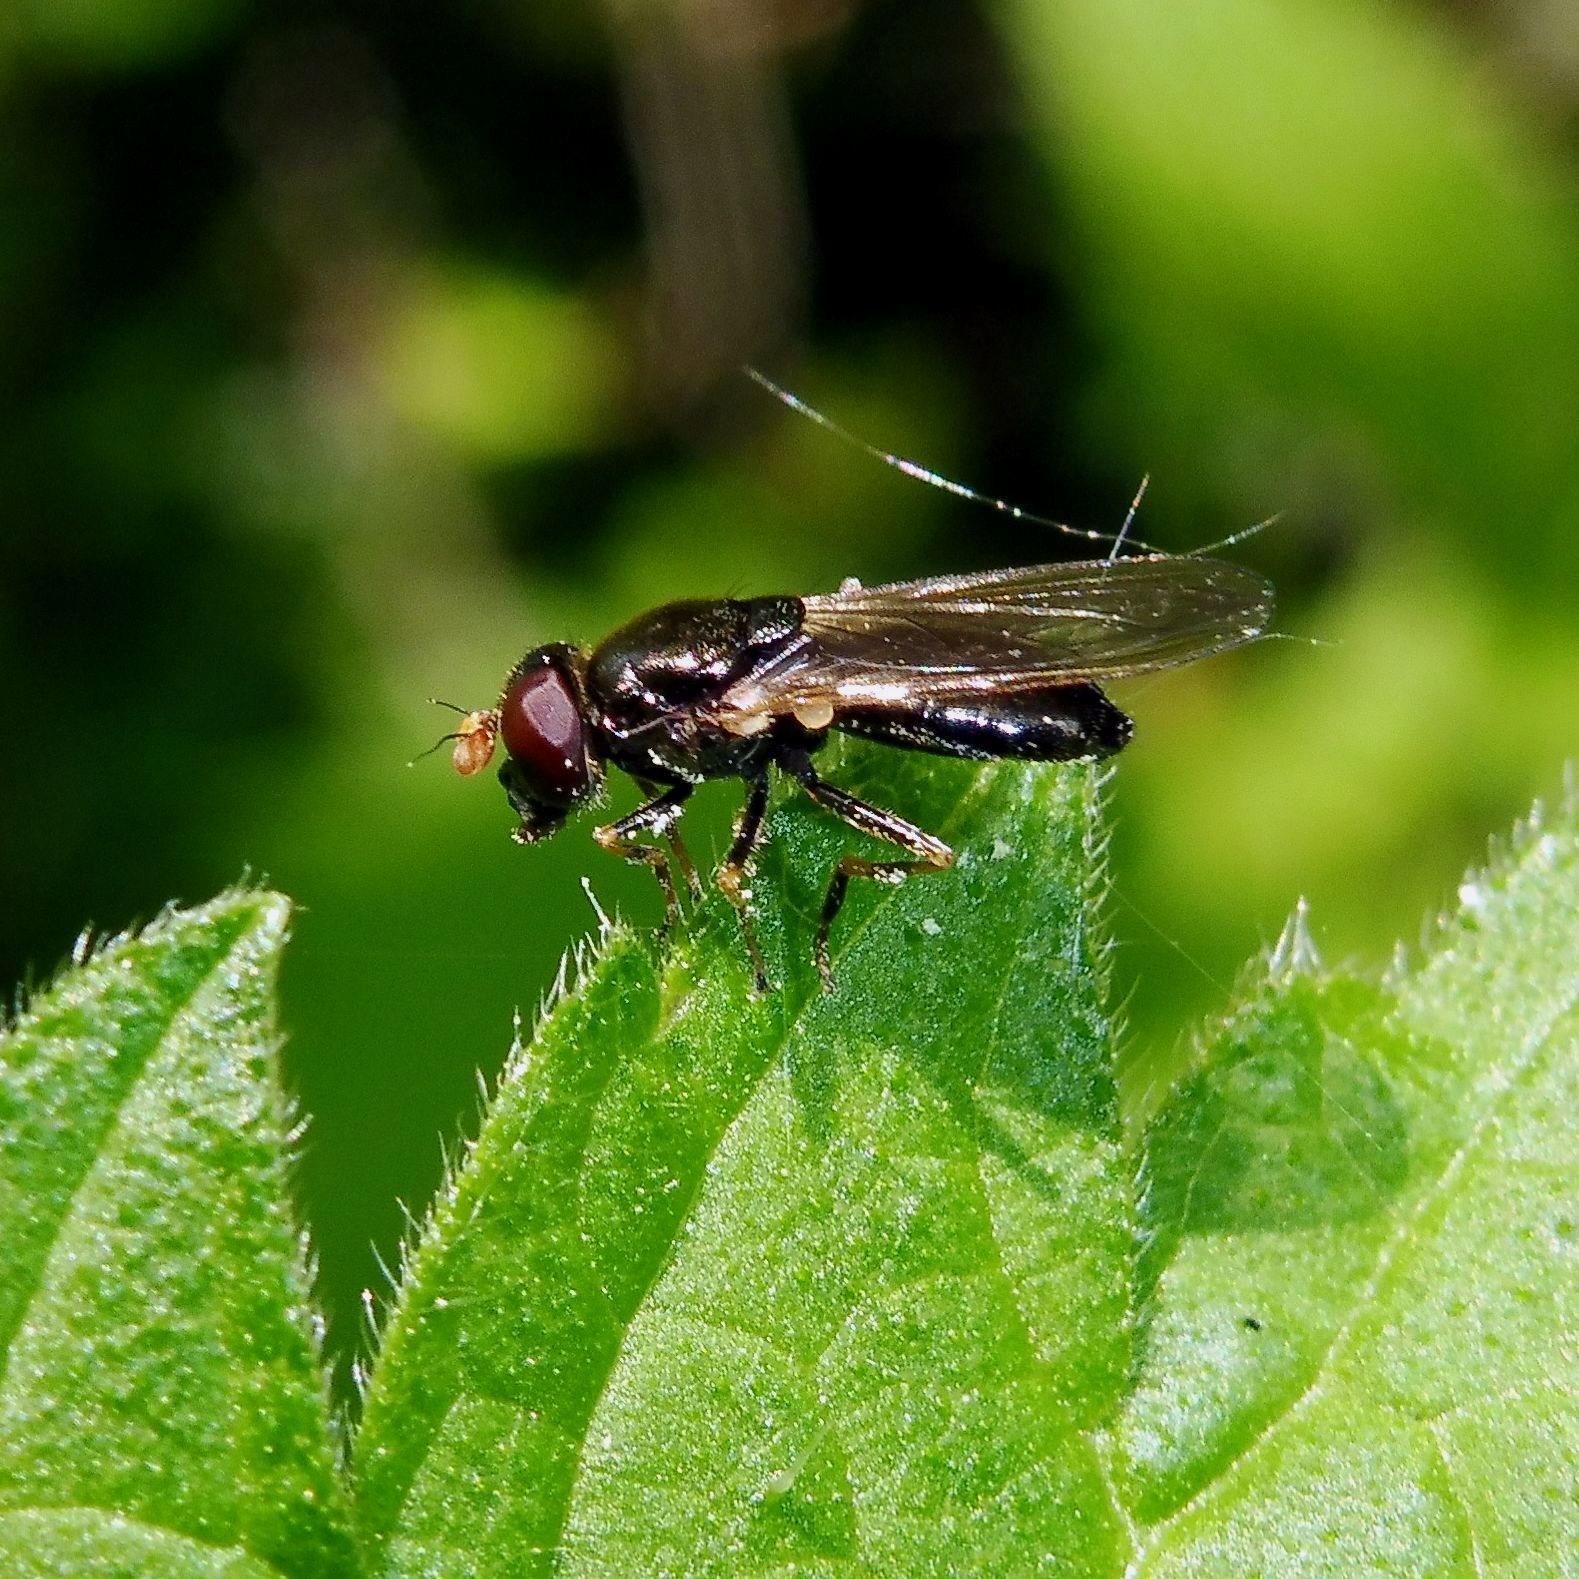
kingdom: Animalia
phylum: Arthropoda
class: Insecta
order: Diptera
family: Syrphidae
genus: Cheilosia
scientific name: Cheilosia pagana
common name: Hover fly
